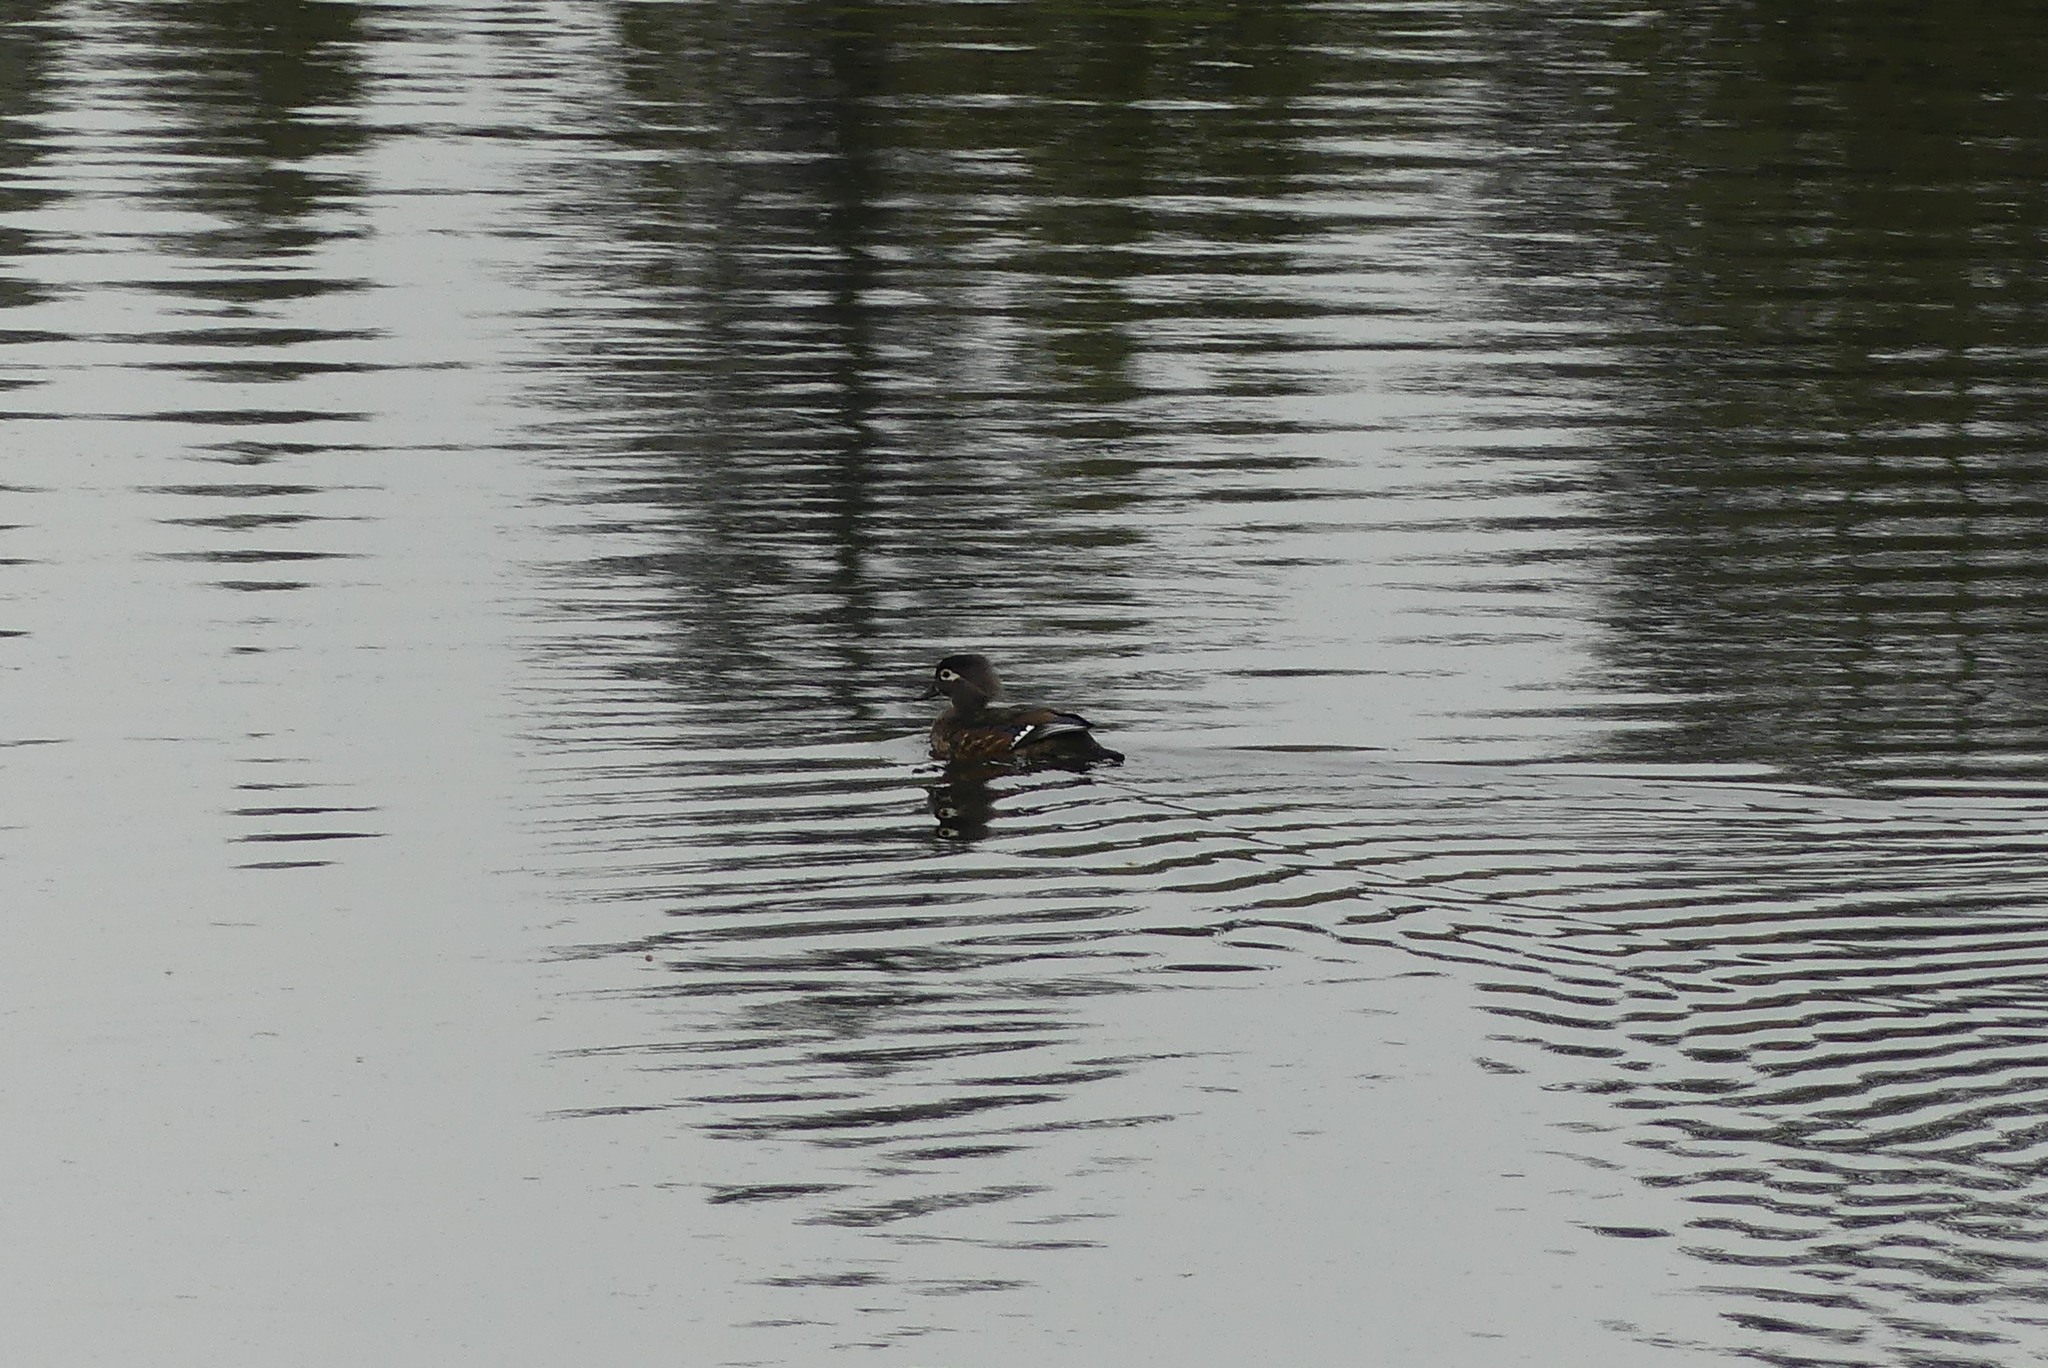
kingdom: Animalia
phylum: Chordata
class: Aves
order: Anseriformes
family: Anatidae
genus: Aix
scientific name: Aix sponsa
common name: Wood duck
